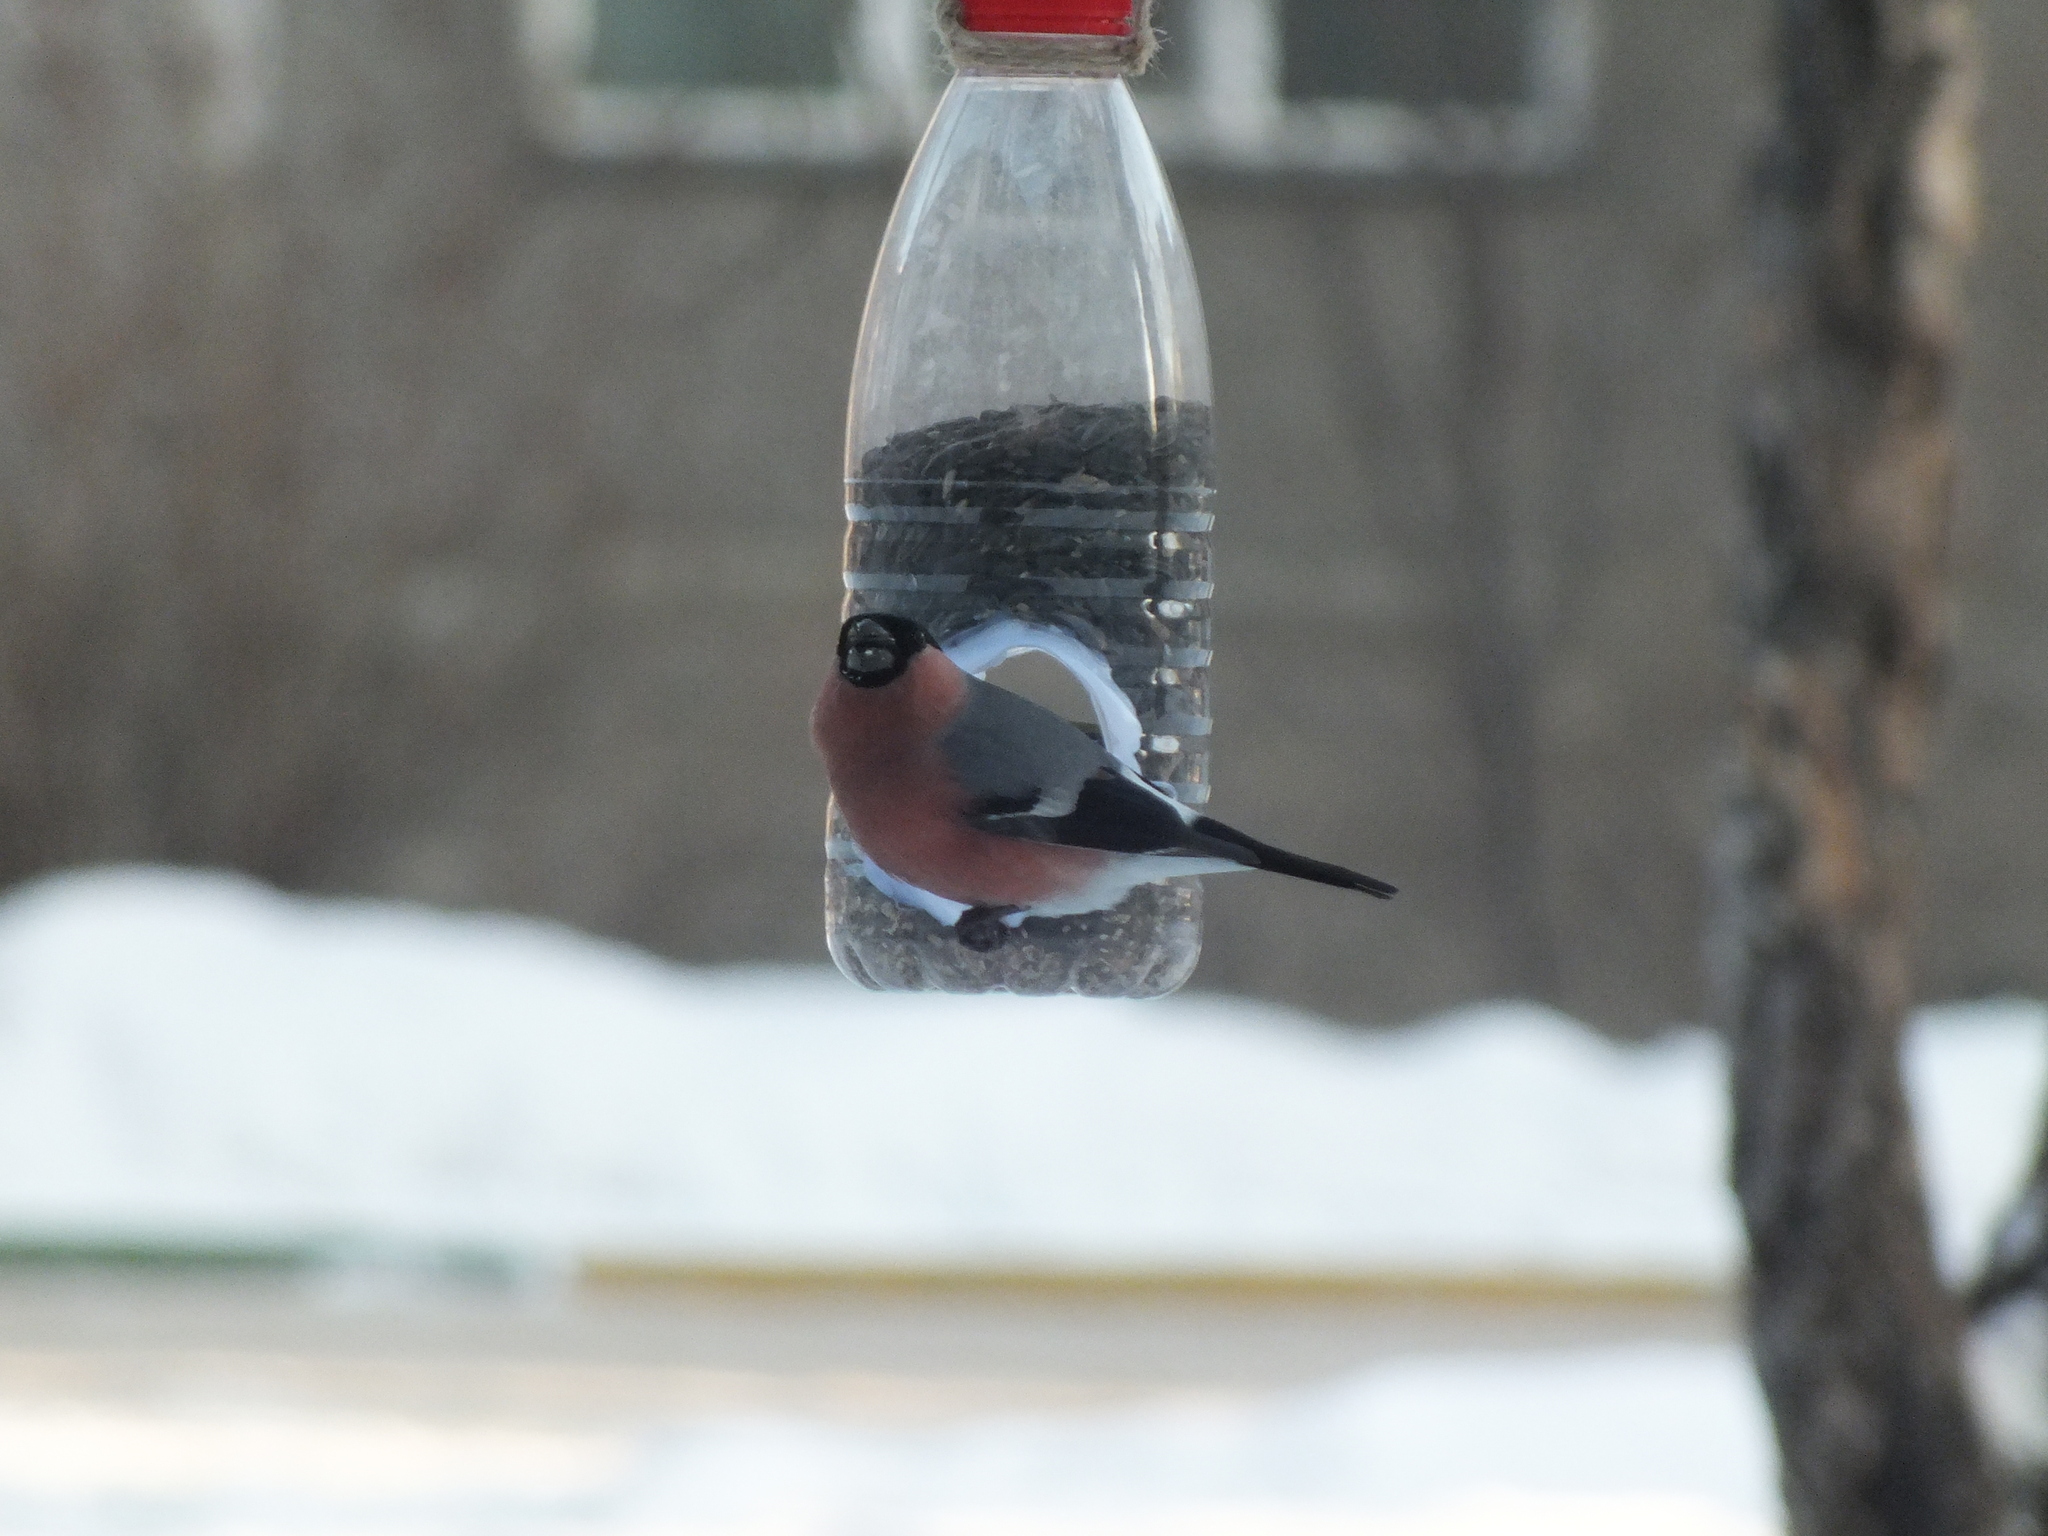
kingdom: Animalia
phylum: Chordata
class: Aves
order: Passeriformes
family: Fringillidae
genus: Pyrrhula
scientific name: Pyrrhula pyrrhula
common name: Eurasian bullfinch
